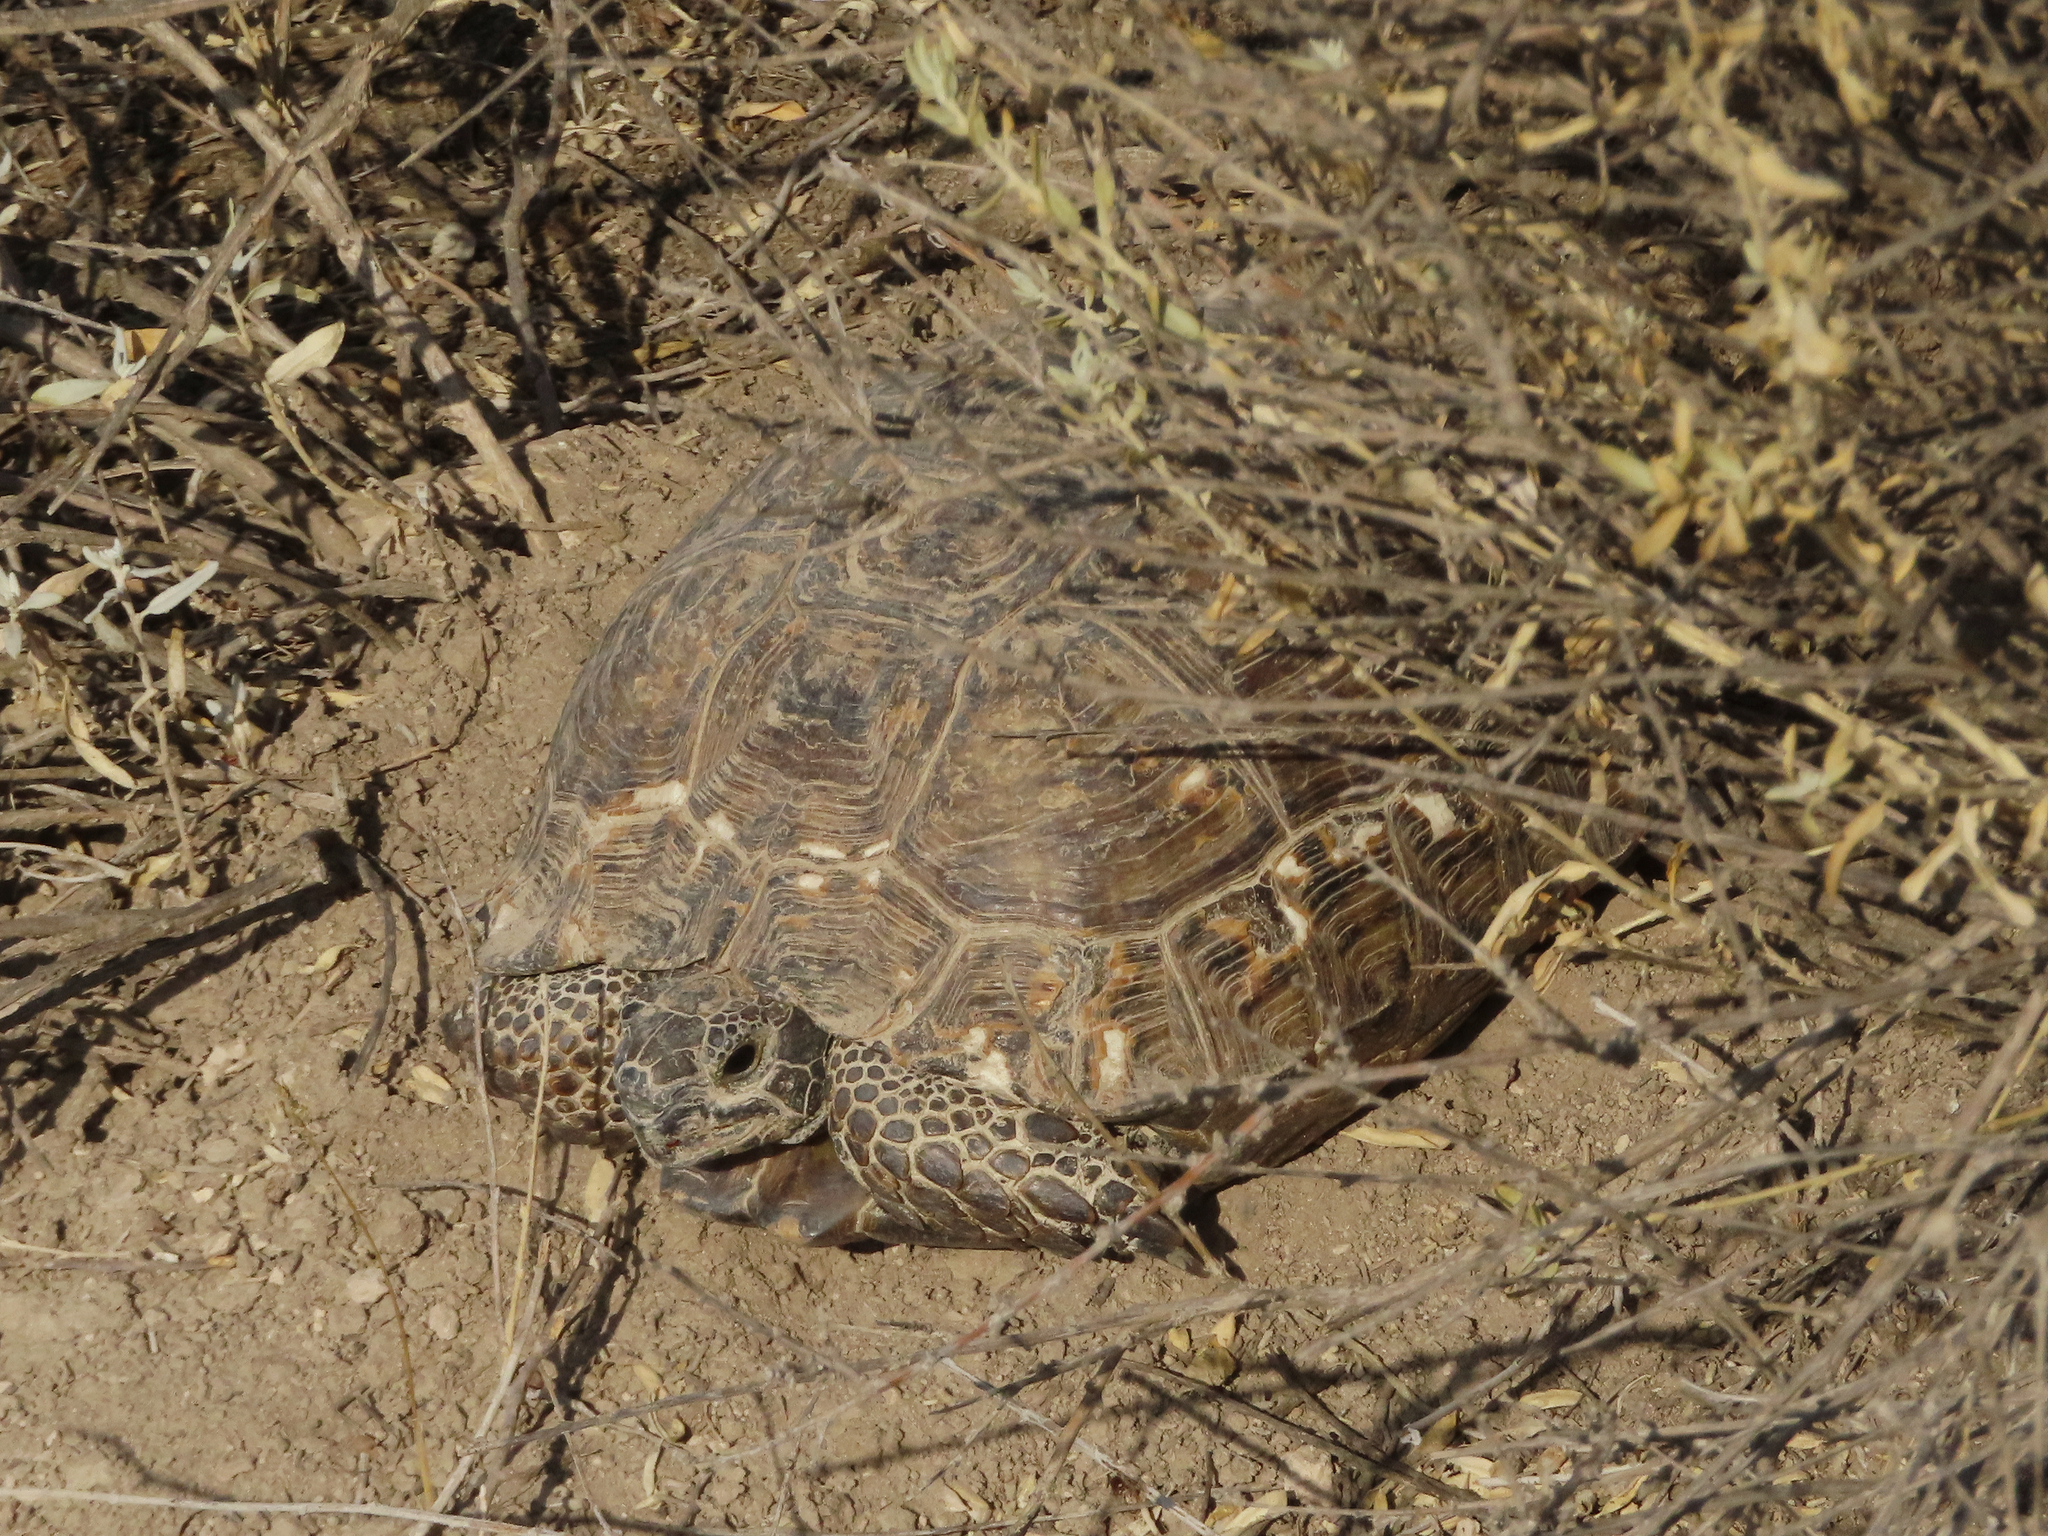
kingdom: Animalia
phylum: Chordata
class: Testudines
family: Testudinidae
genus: Testudo
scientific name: Testudo graeca
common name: Common tortoise
